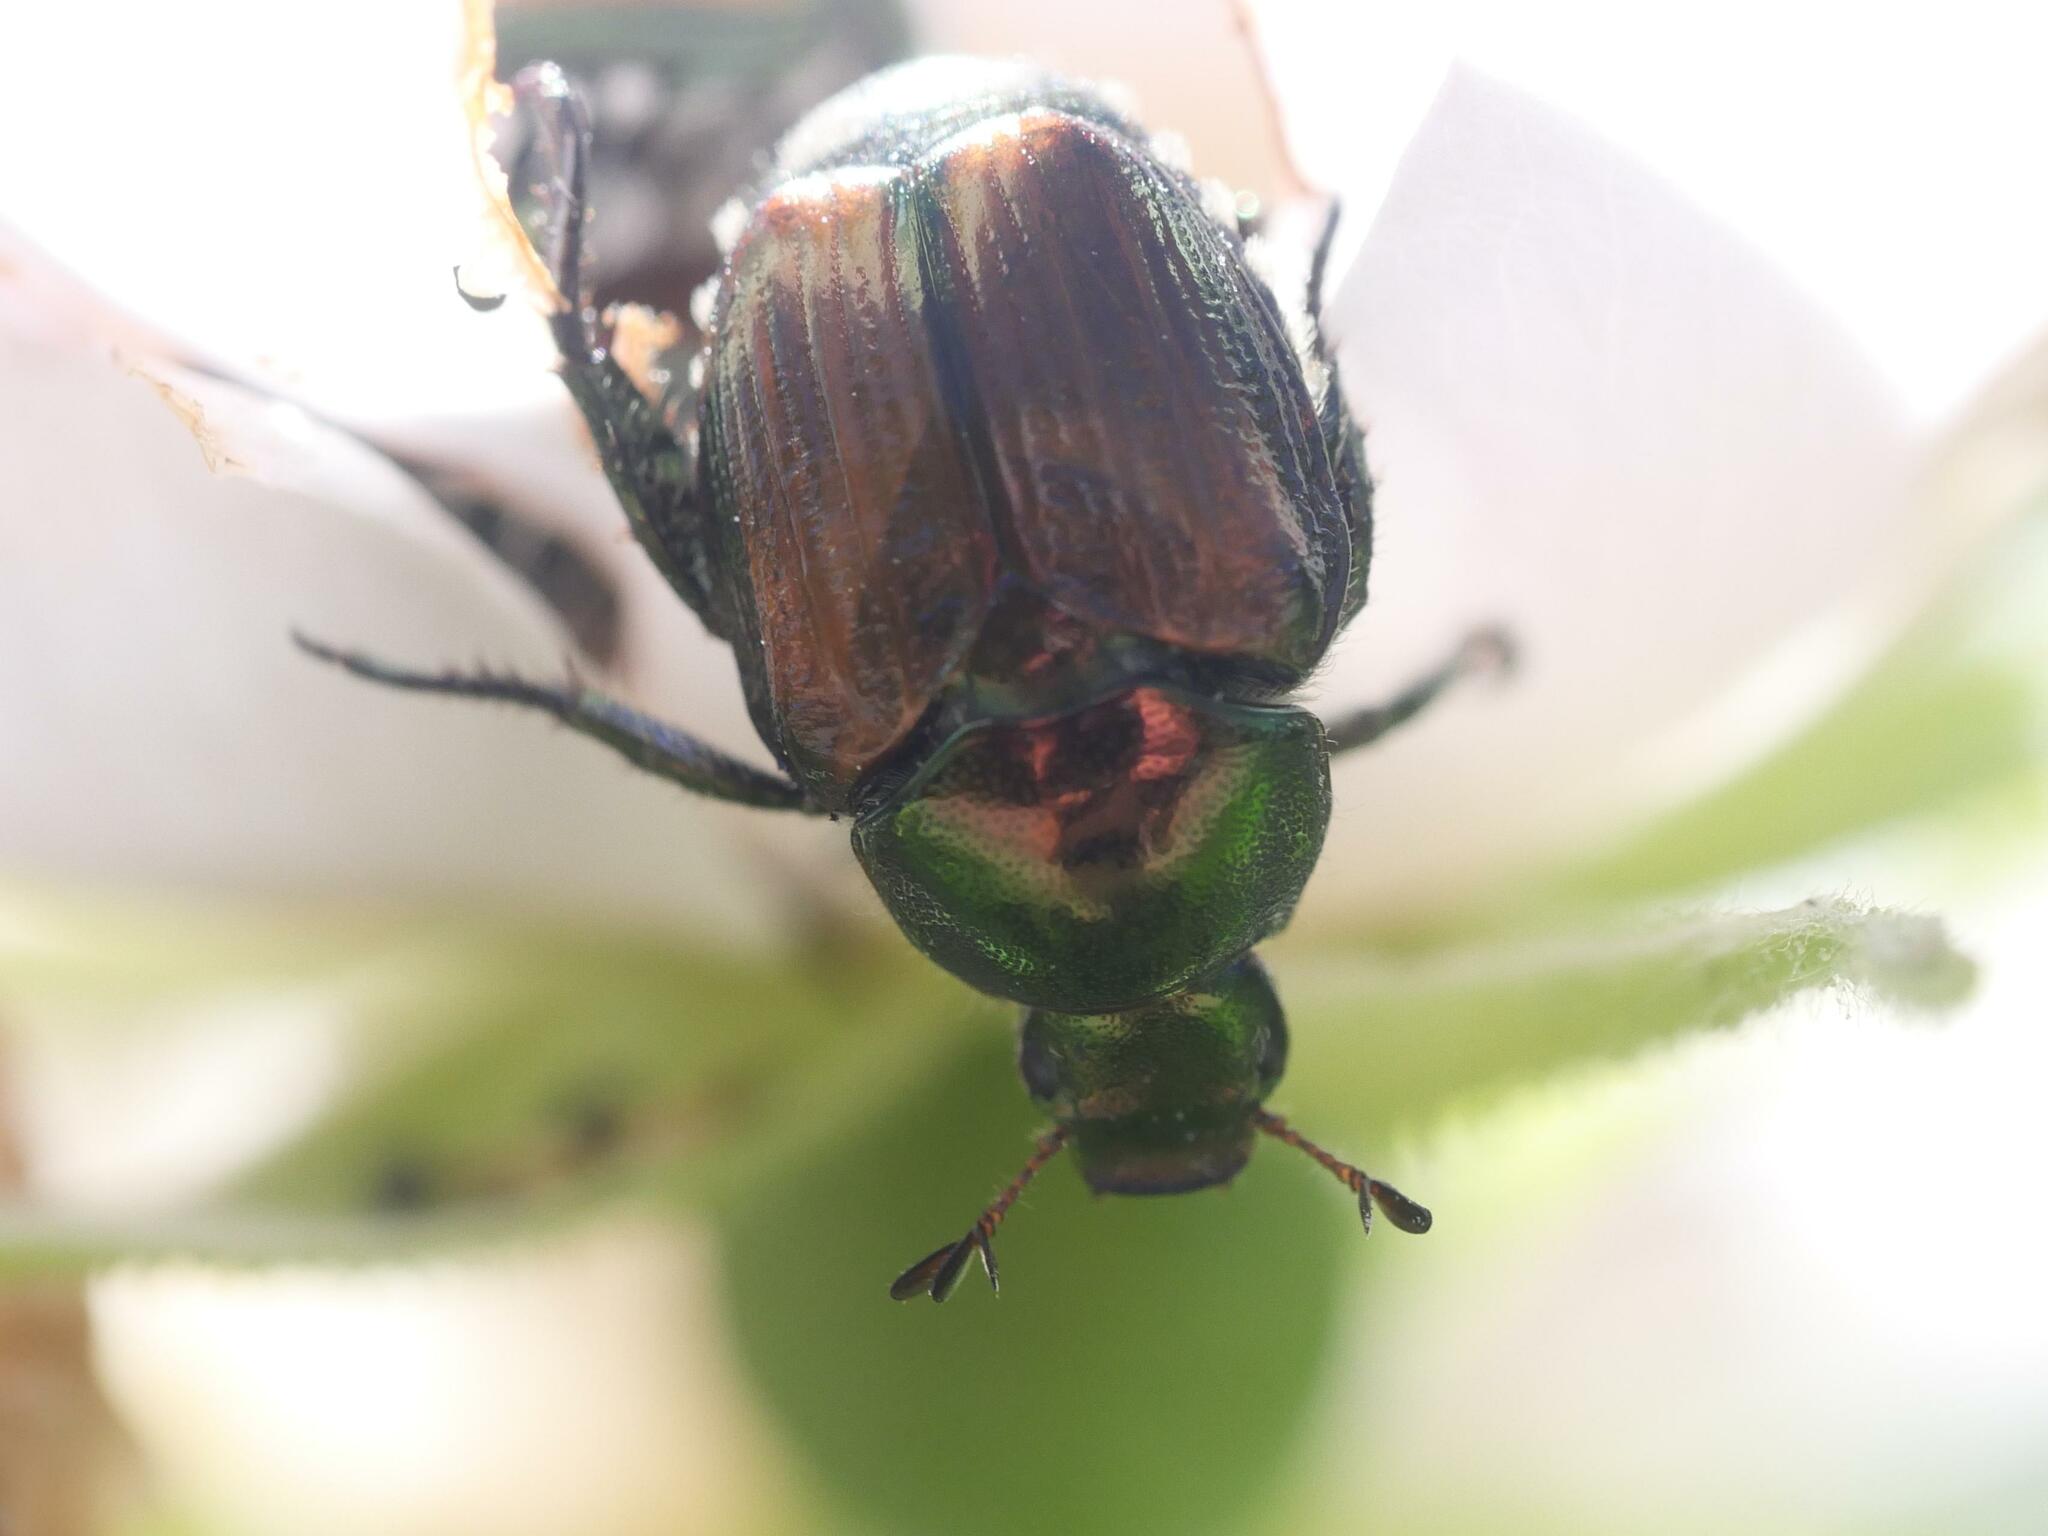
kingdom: Animalia
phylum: Arthropoda
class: Insecta
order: Coleoptera
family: Scarabaeidae
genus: Popillia
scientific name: Popillia japonica
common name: Japanese beetle
